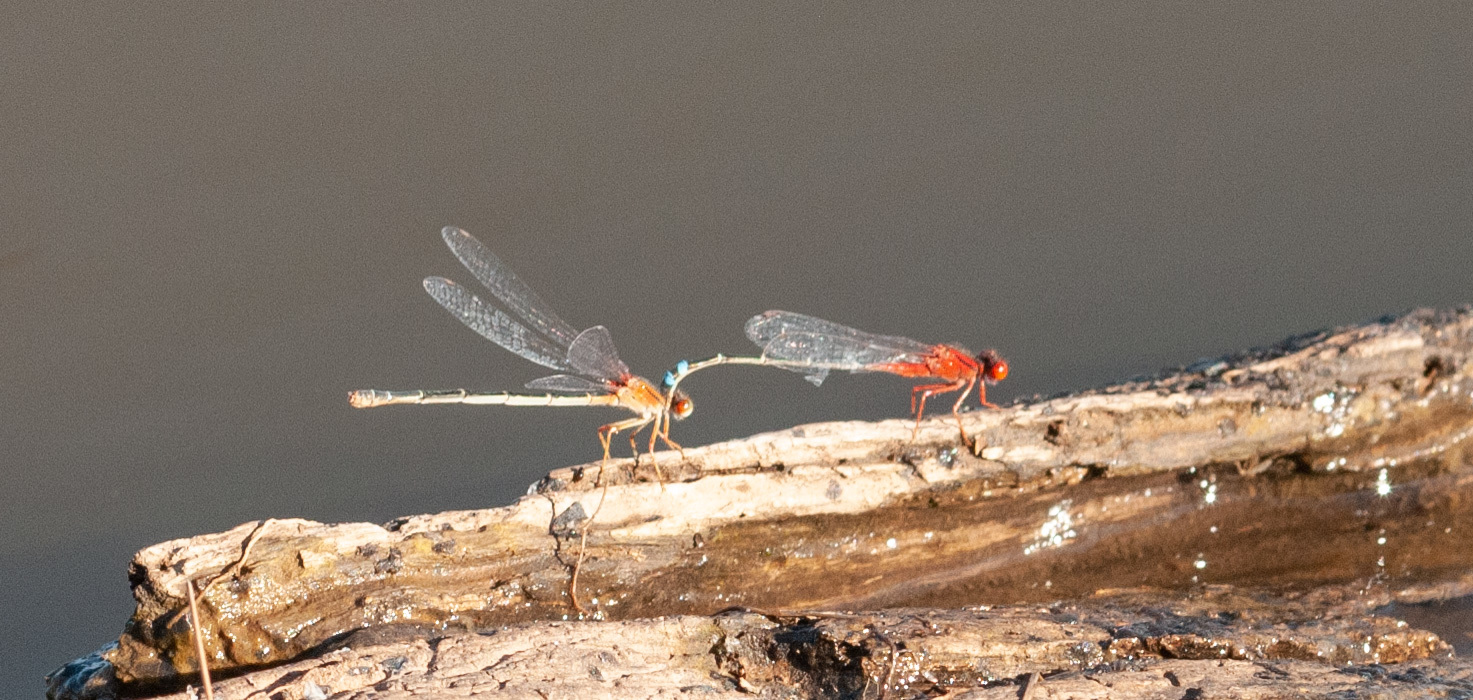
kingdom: Animalia
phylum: Arthropoda
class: Insecta
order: Odonata
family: Coenagrionidae
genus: Xanthagrion
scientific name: Xanthagrion erythroneurum
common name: Red and blue damsel
